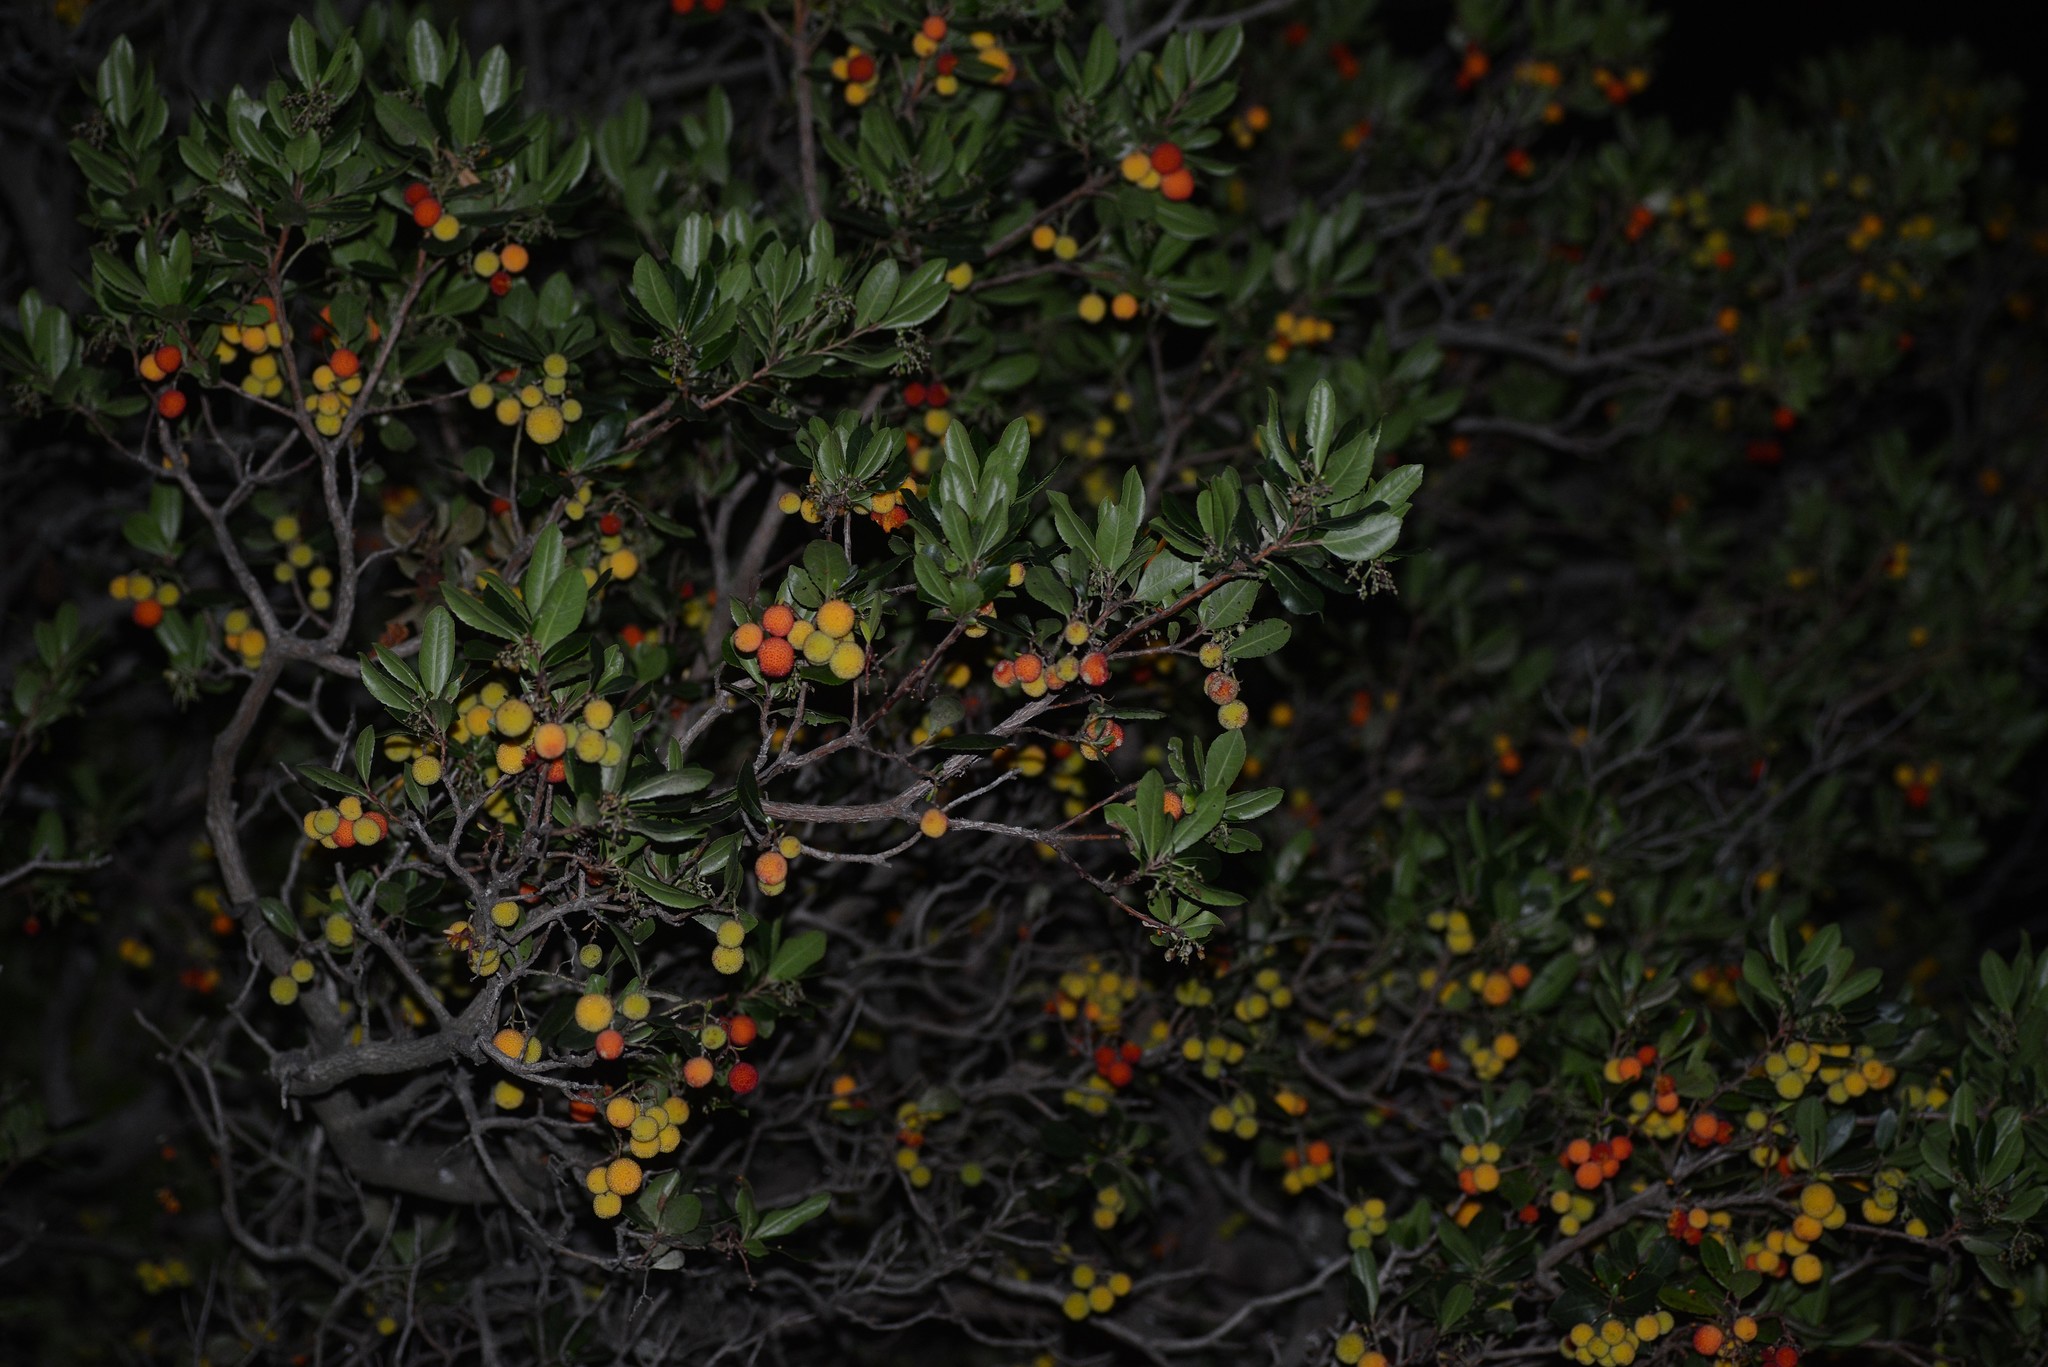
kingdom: Plantae
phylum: Tracheophyta
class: Magnoliopsida
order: Ericales
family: Ericaceae
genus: Arbutus
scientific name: Arbutus unedo
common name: Strawberry-tree
